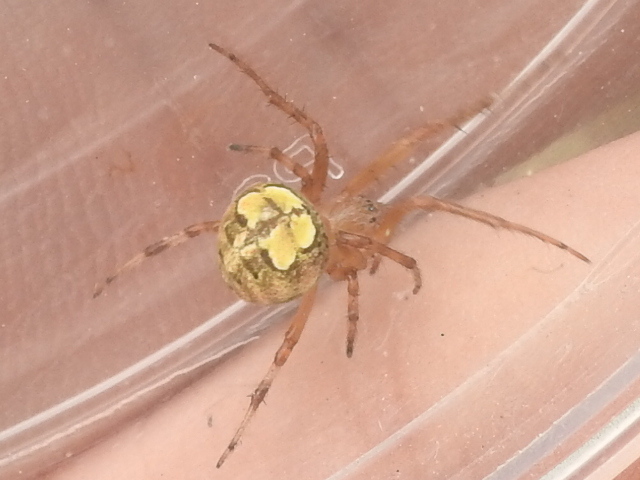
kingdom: Animalia
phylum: Arthropoda
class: Arachnida
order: Araneae
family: Araneidae
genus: Araneus
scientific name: Araneus pegnia
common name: Orb weavers
